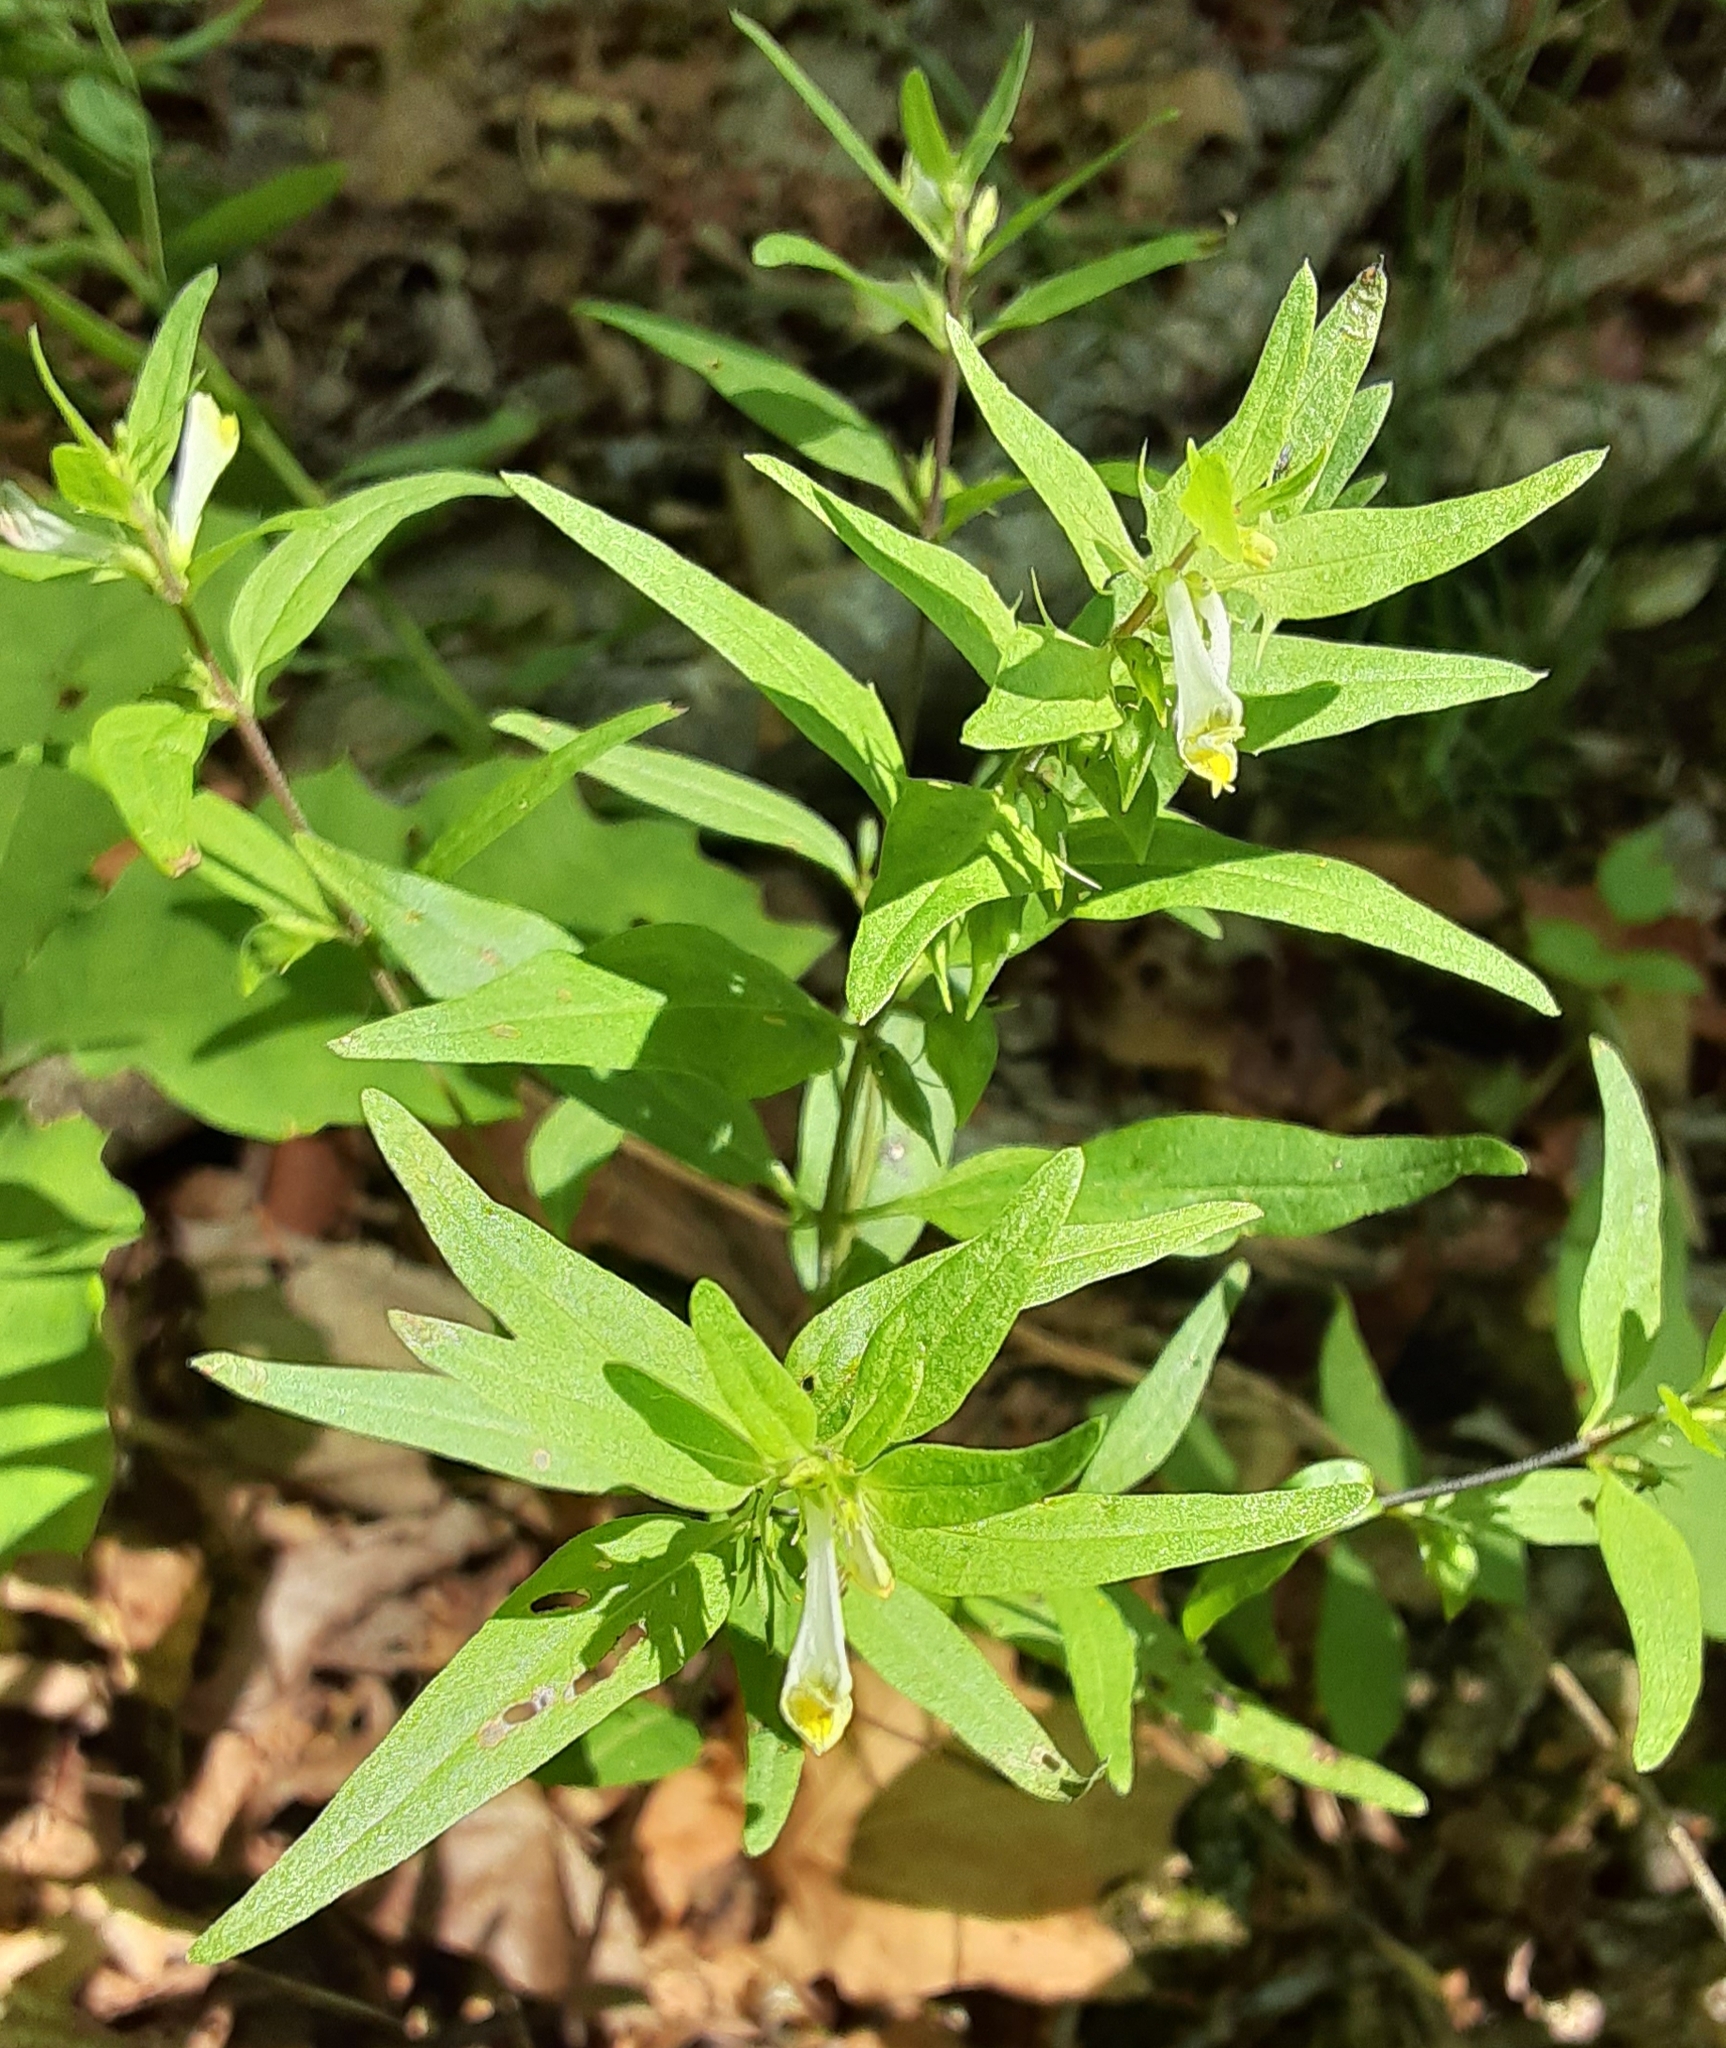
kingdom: Plantae
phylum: Tracheophyta
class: Magnoliopsida
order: Lamiales
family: Orobanchaceae
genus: Melampyrum
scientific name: Melampyrum lineare
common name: American cow-wheat
